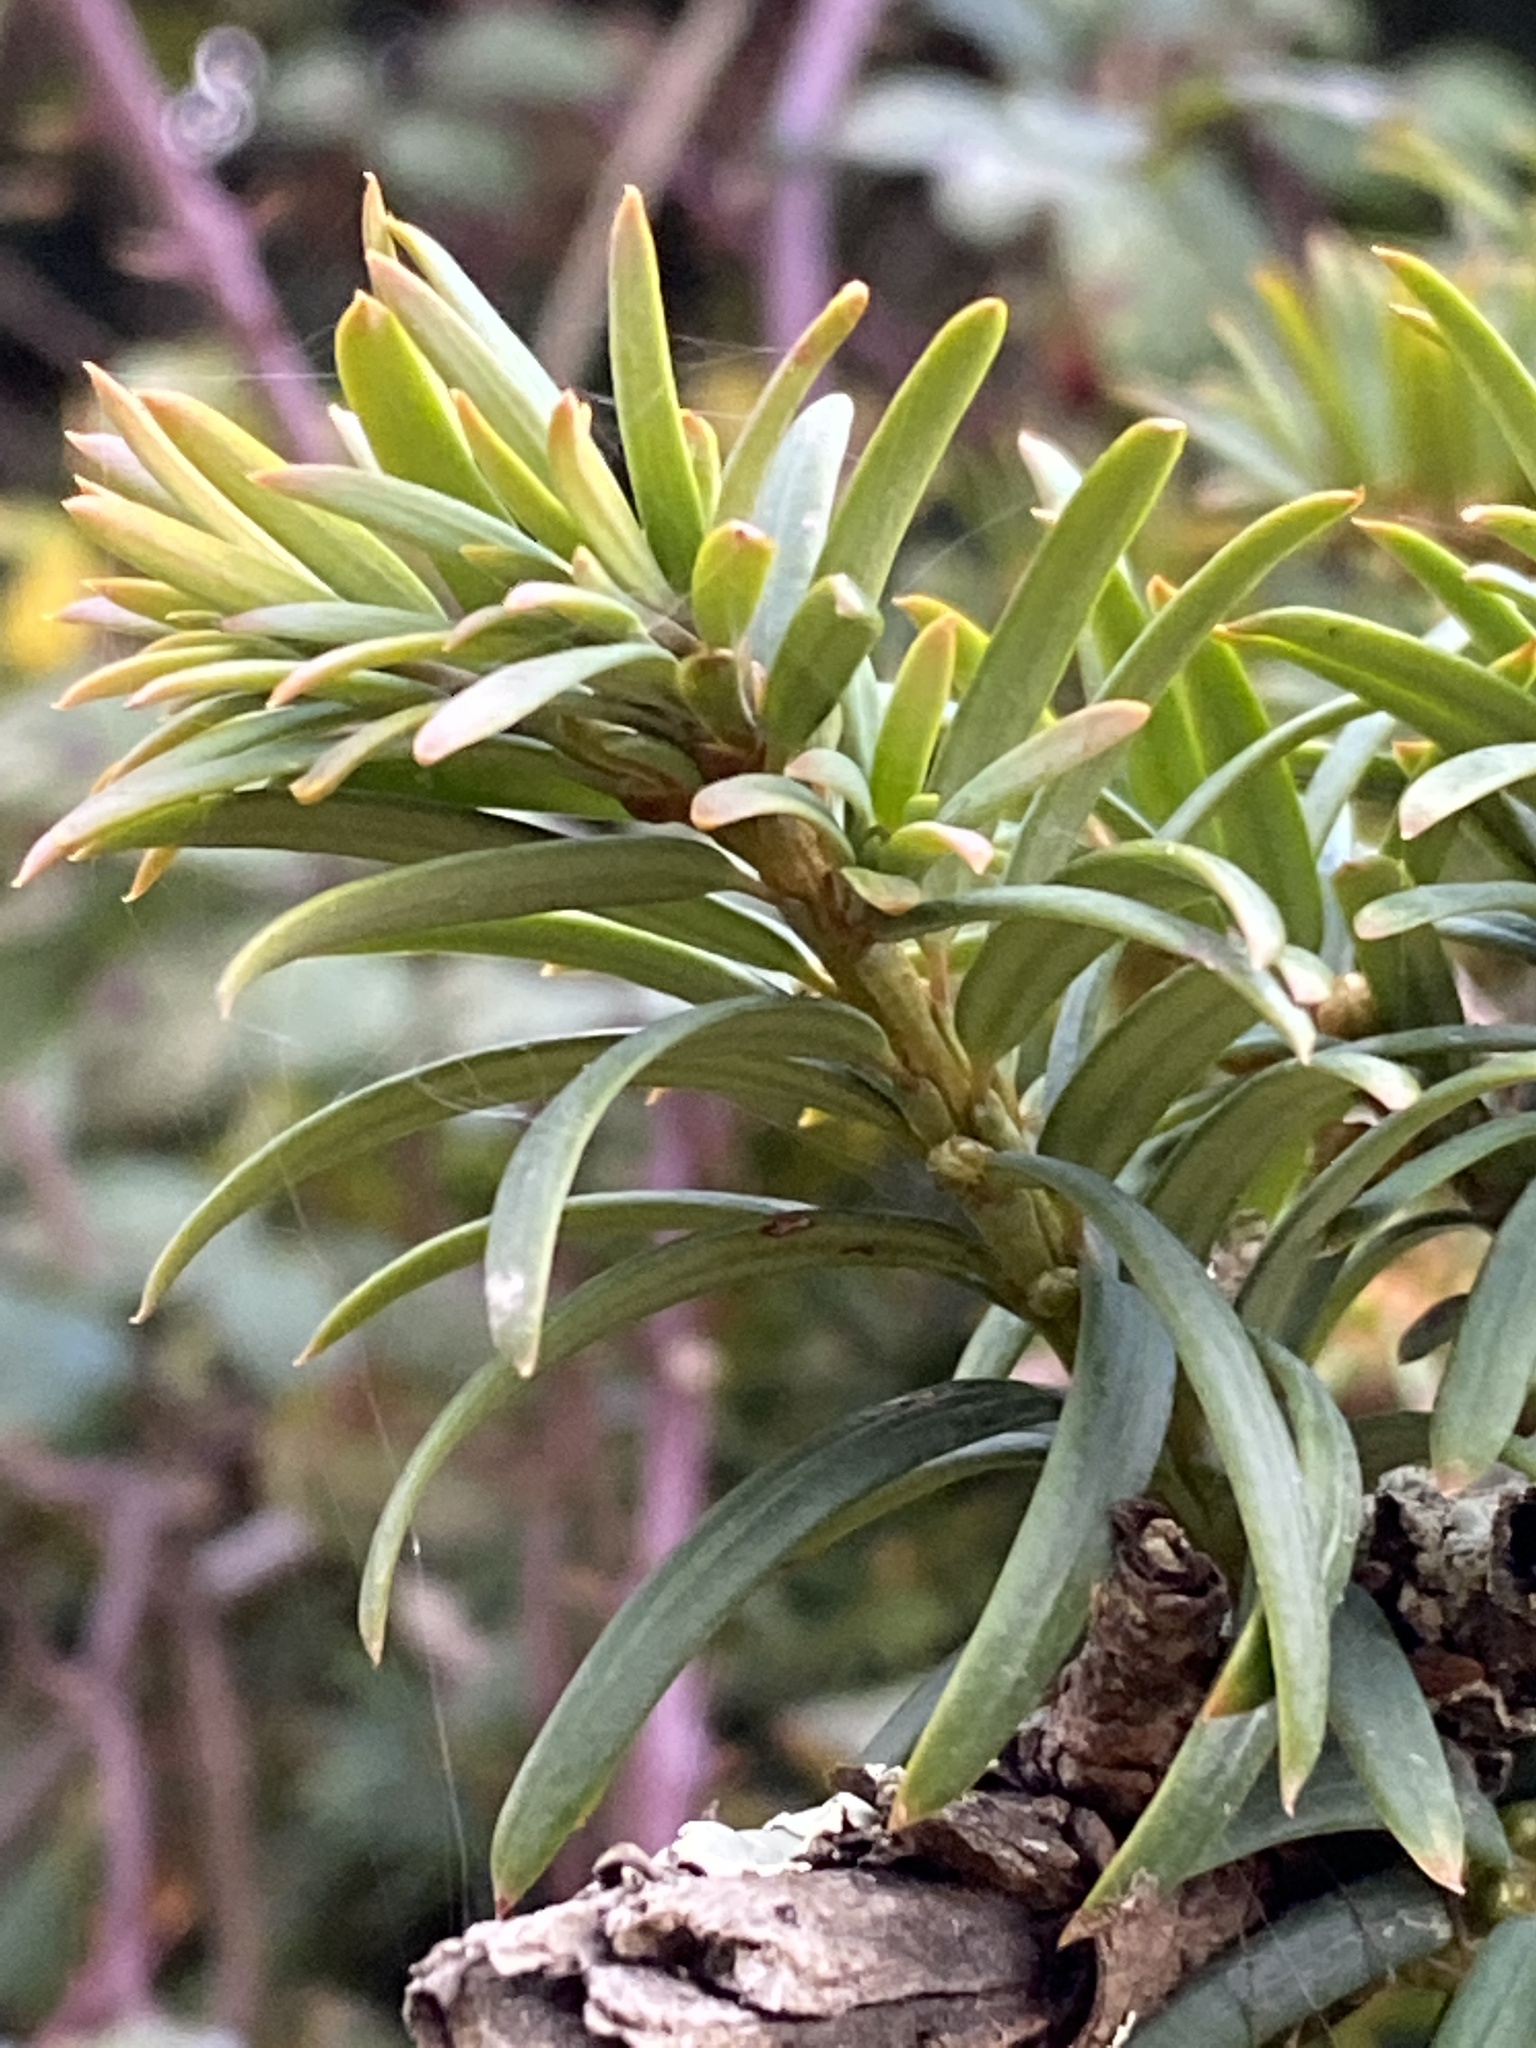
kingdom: Plantae
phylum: Tracheophyta
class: Pinopsida
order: Pinales
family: Taxaceae
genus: Taxus
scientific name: Taxus baccata
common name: Yew
